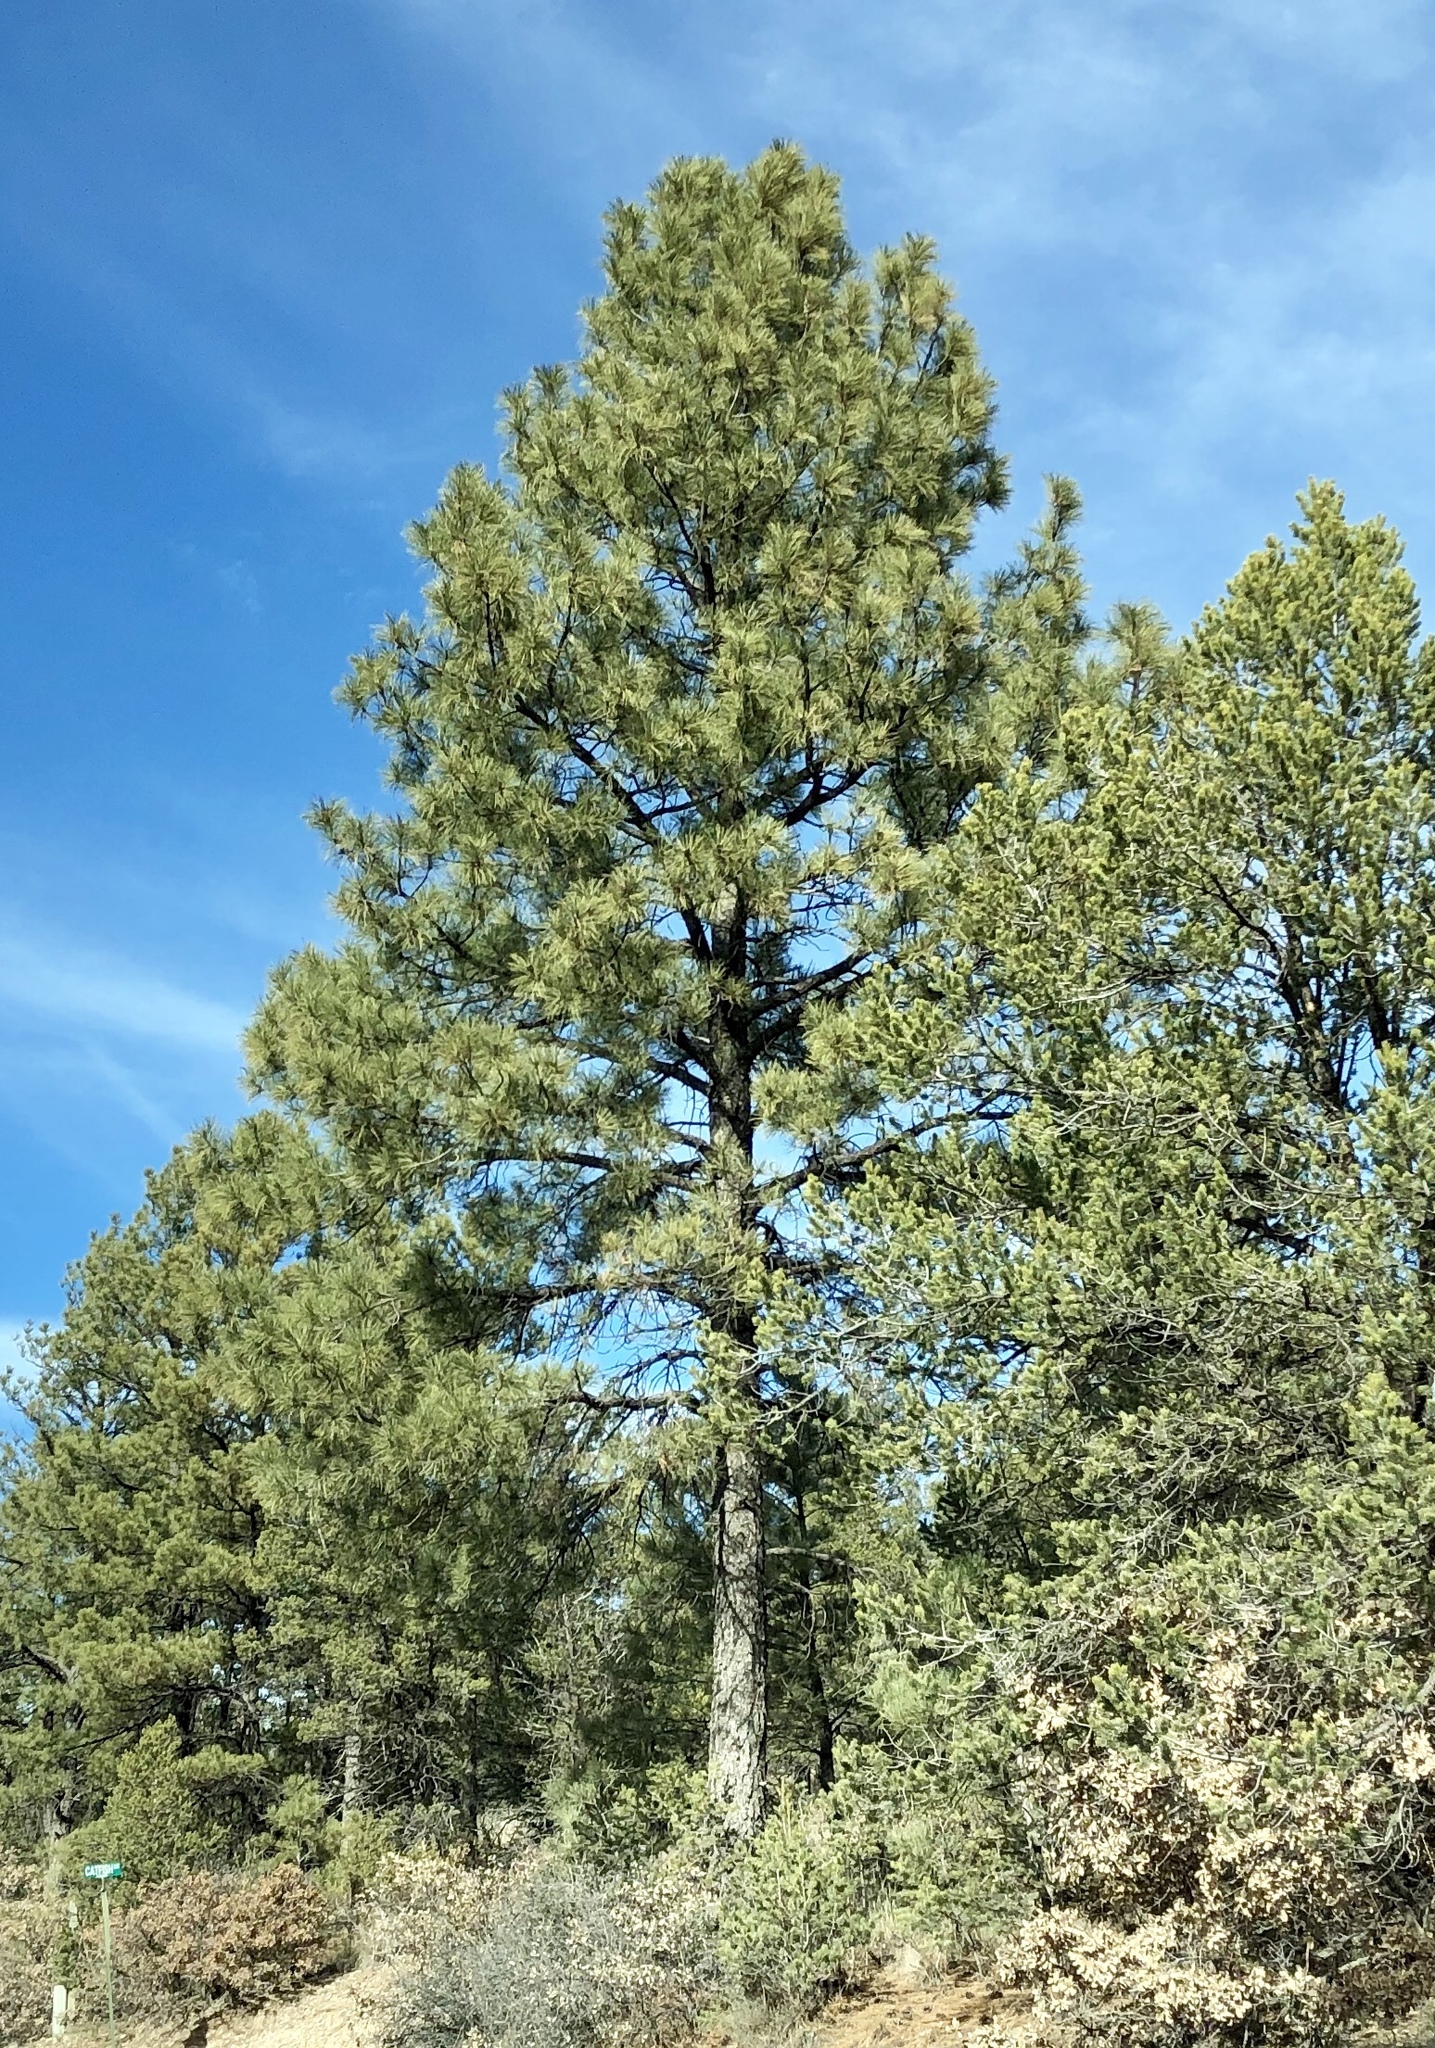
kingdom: Plantae
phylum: Tracheophyta
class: Pinopsida
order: Pinales
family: Pinaceae
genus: Pinus
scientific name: Pinus ponderosa
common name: Western yellow-pine
